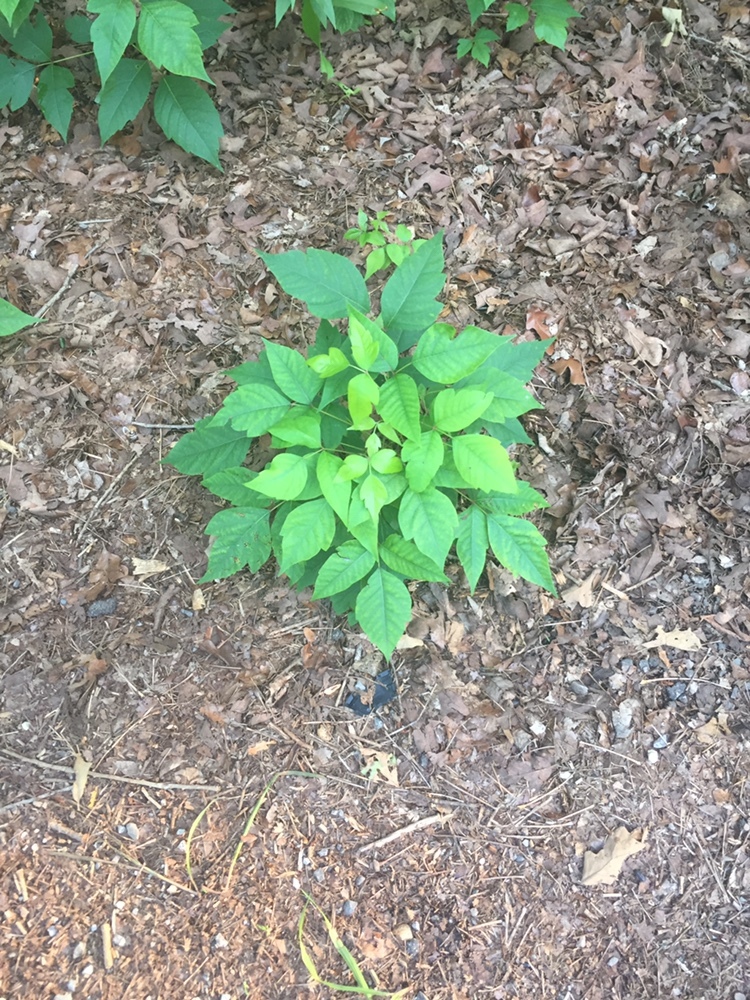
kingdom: Plantae
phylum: Tracheophyta
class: Magnoliopsida
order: Sapindales
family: Anacardiaceae
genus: Toxicodendron
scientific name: Toxicodendron radicans
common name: Poison ivy
